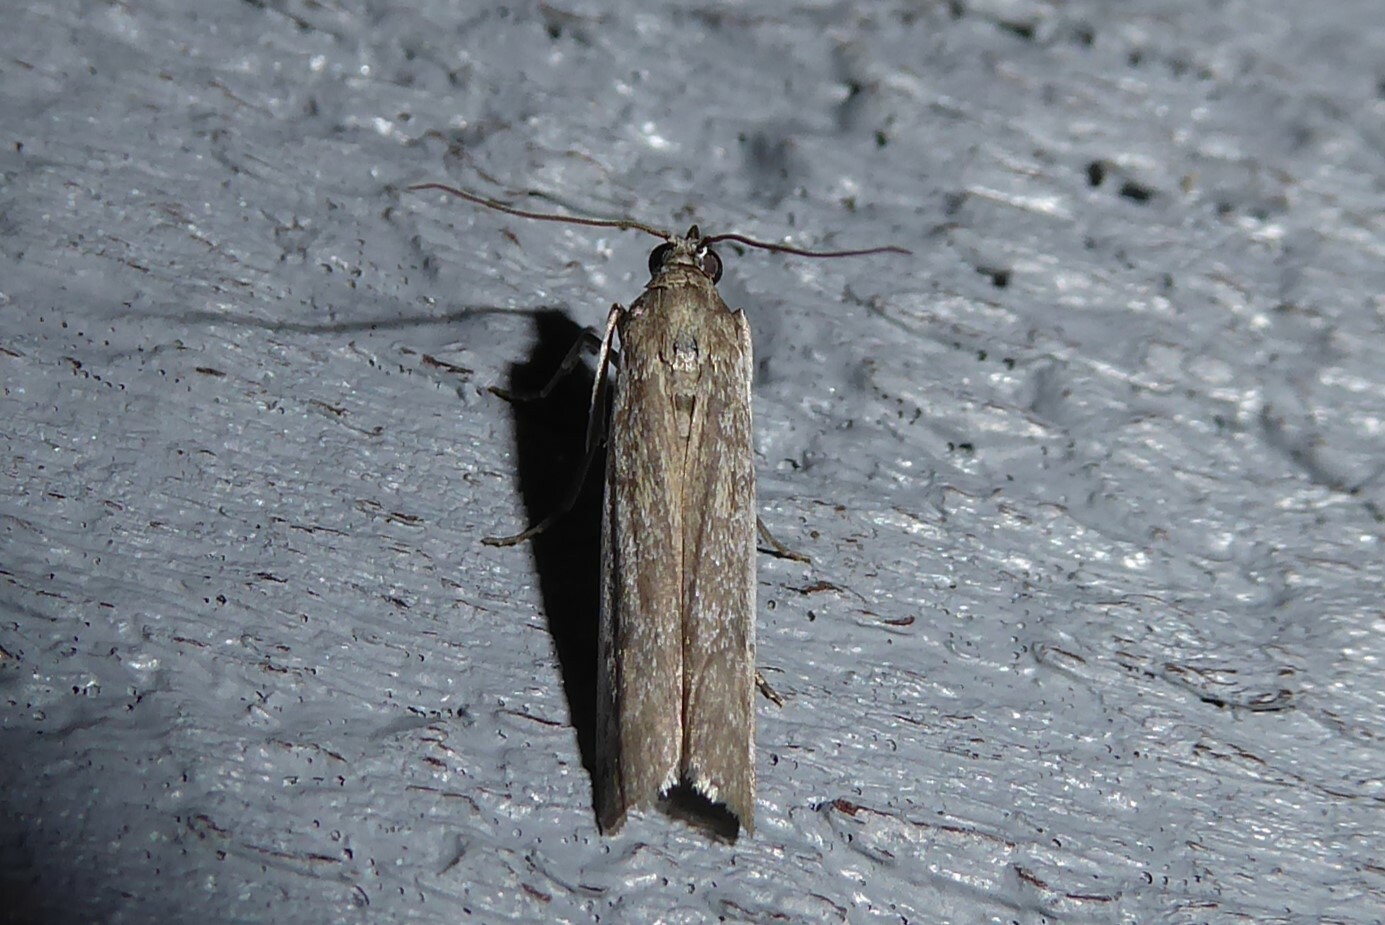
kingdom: Animalia
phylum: Arthropoda
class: Insecta
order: Lepidoptera
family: Pyralidae
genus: Patagoniodes
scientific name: Patagoniodes farinaria
